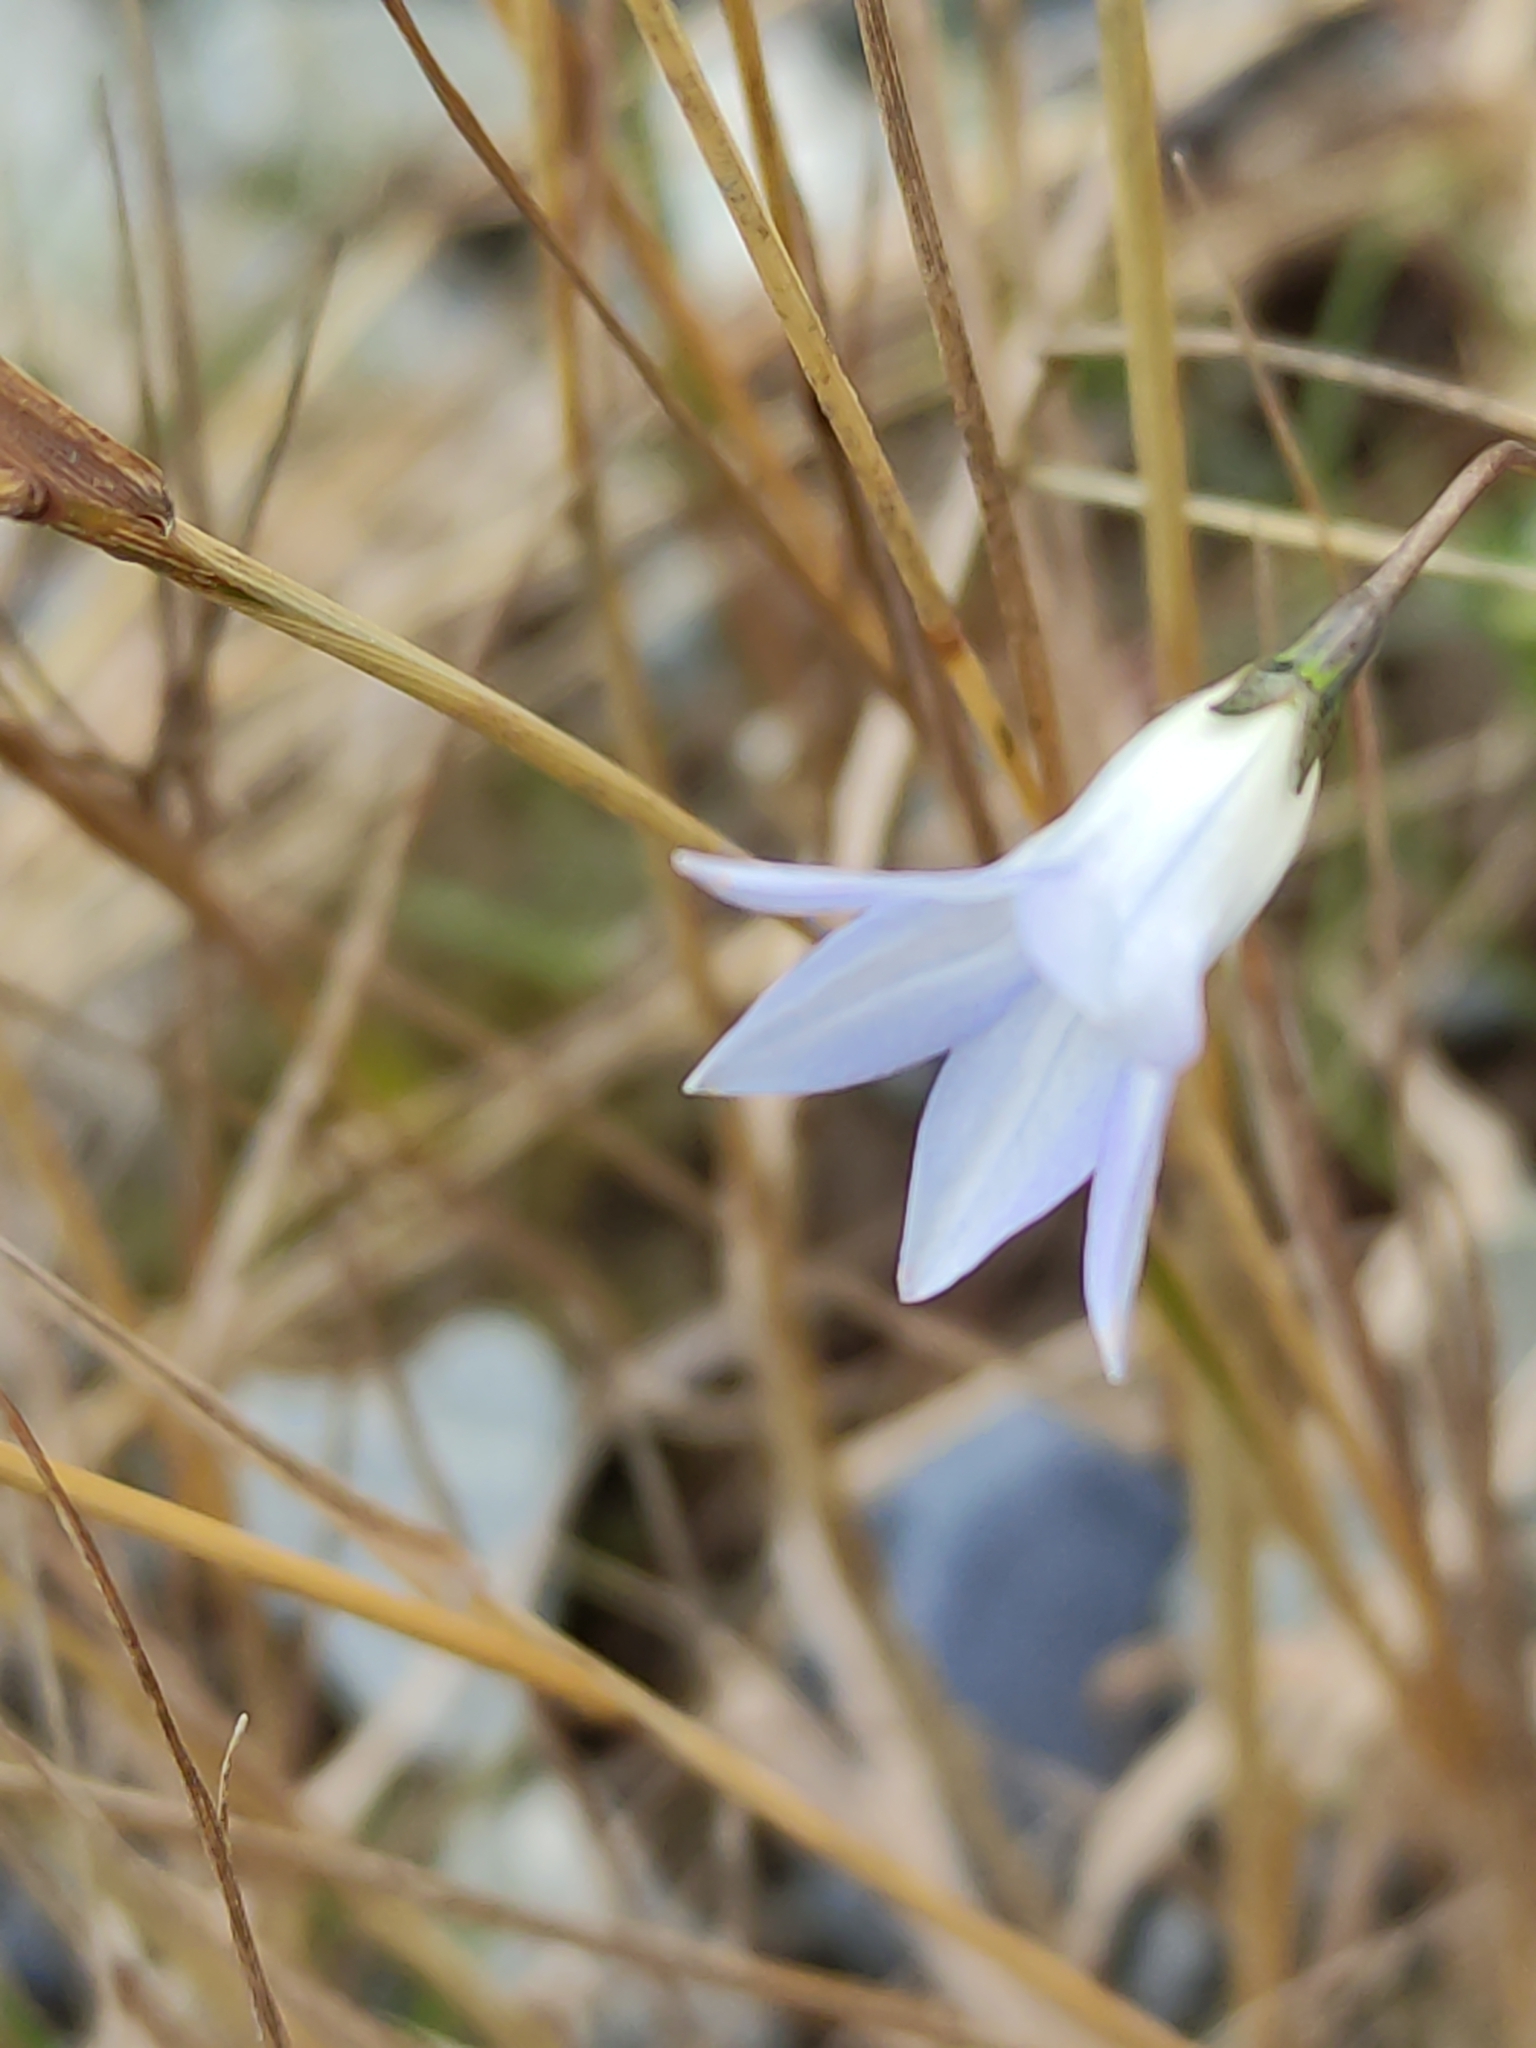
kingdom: Plantae
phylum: Tracheophyta
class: Magnoliopsida
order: Asterales
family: Campanulaceae
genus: Wahlenbergia
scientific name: Wahlenbergia albomarginata
